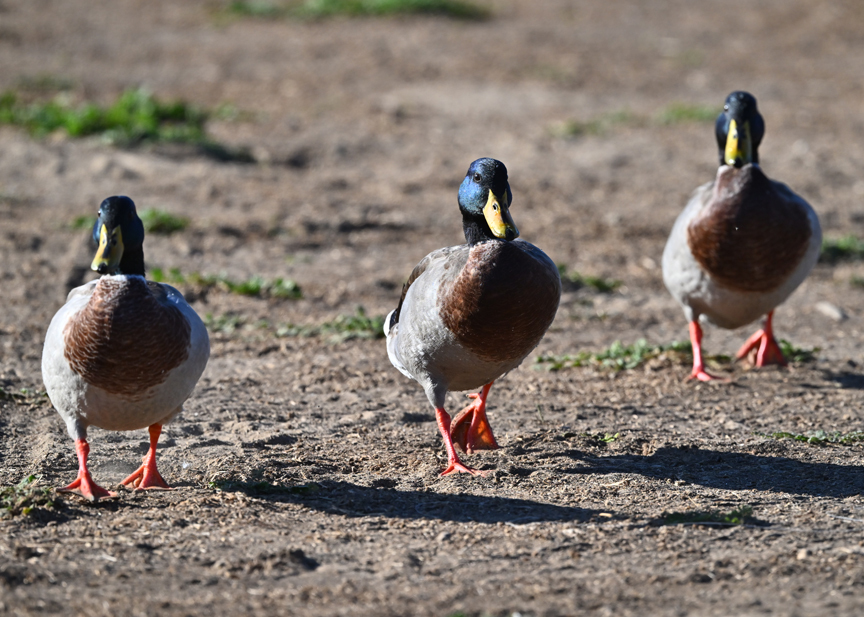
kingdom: Animalia
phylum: Chordata
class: Aves
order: Anseriformes
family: Anatidae
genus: Anas
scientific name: Anas platyrhynchos
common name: Mallard
